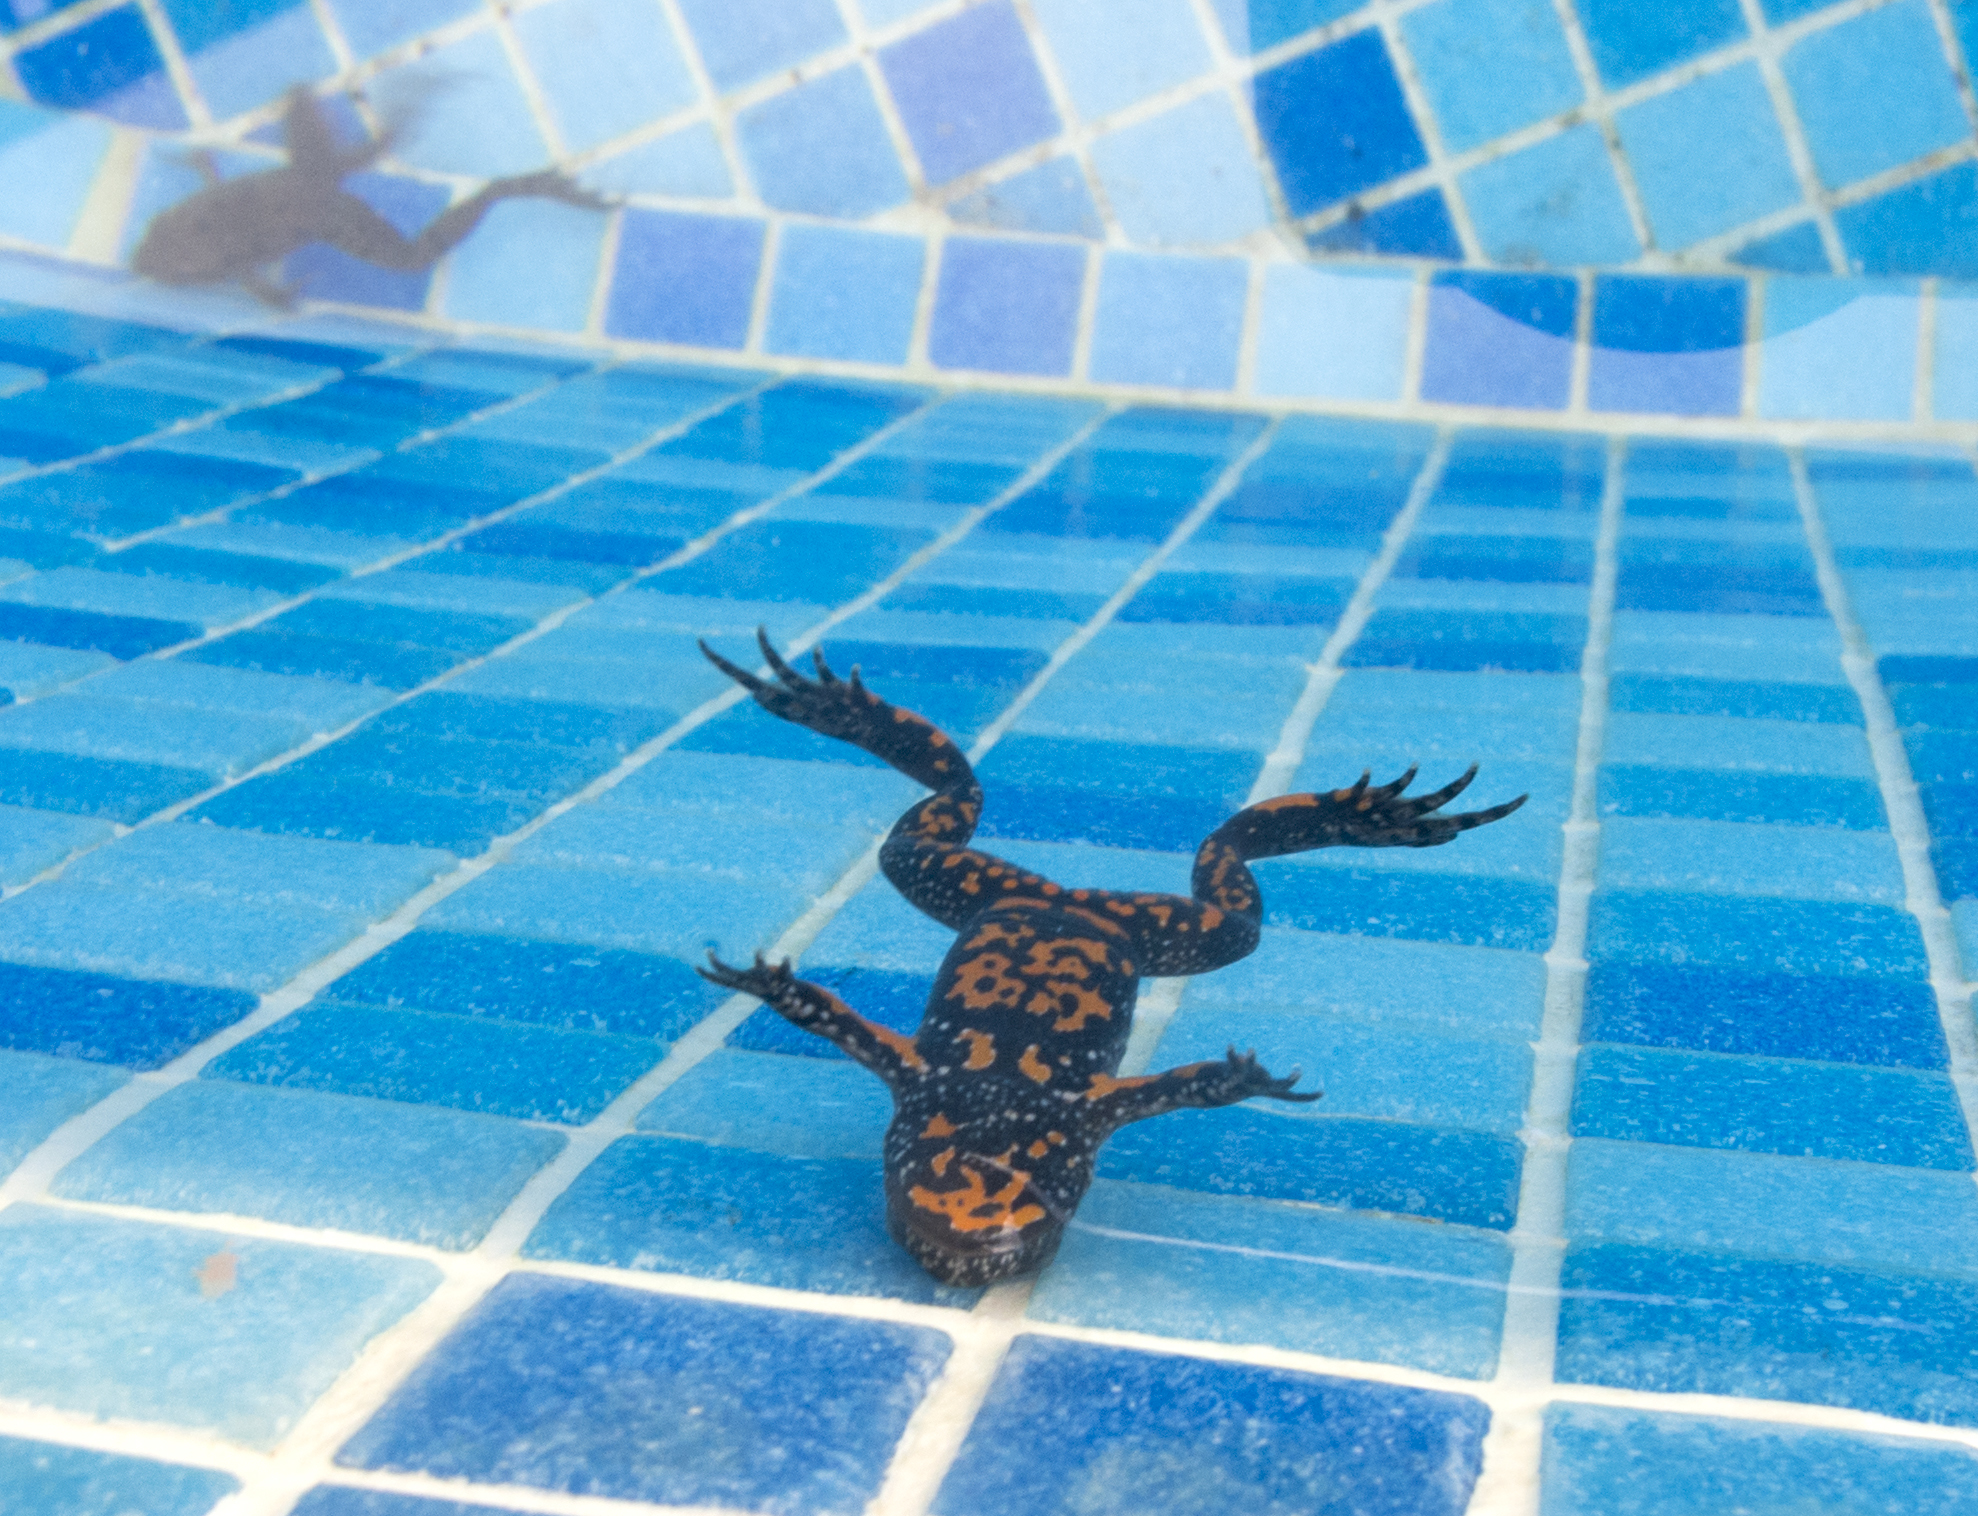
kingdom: Animalia
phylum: Chordata
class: Amphibia
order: Anura
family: Bombinatoridae
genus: Bombina
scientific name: Bombina bombina
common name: Fire-bellied toad
